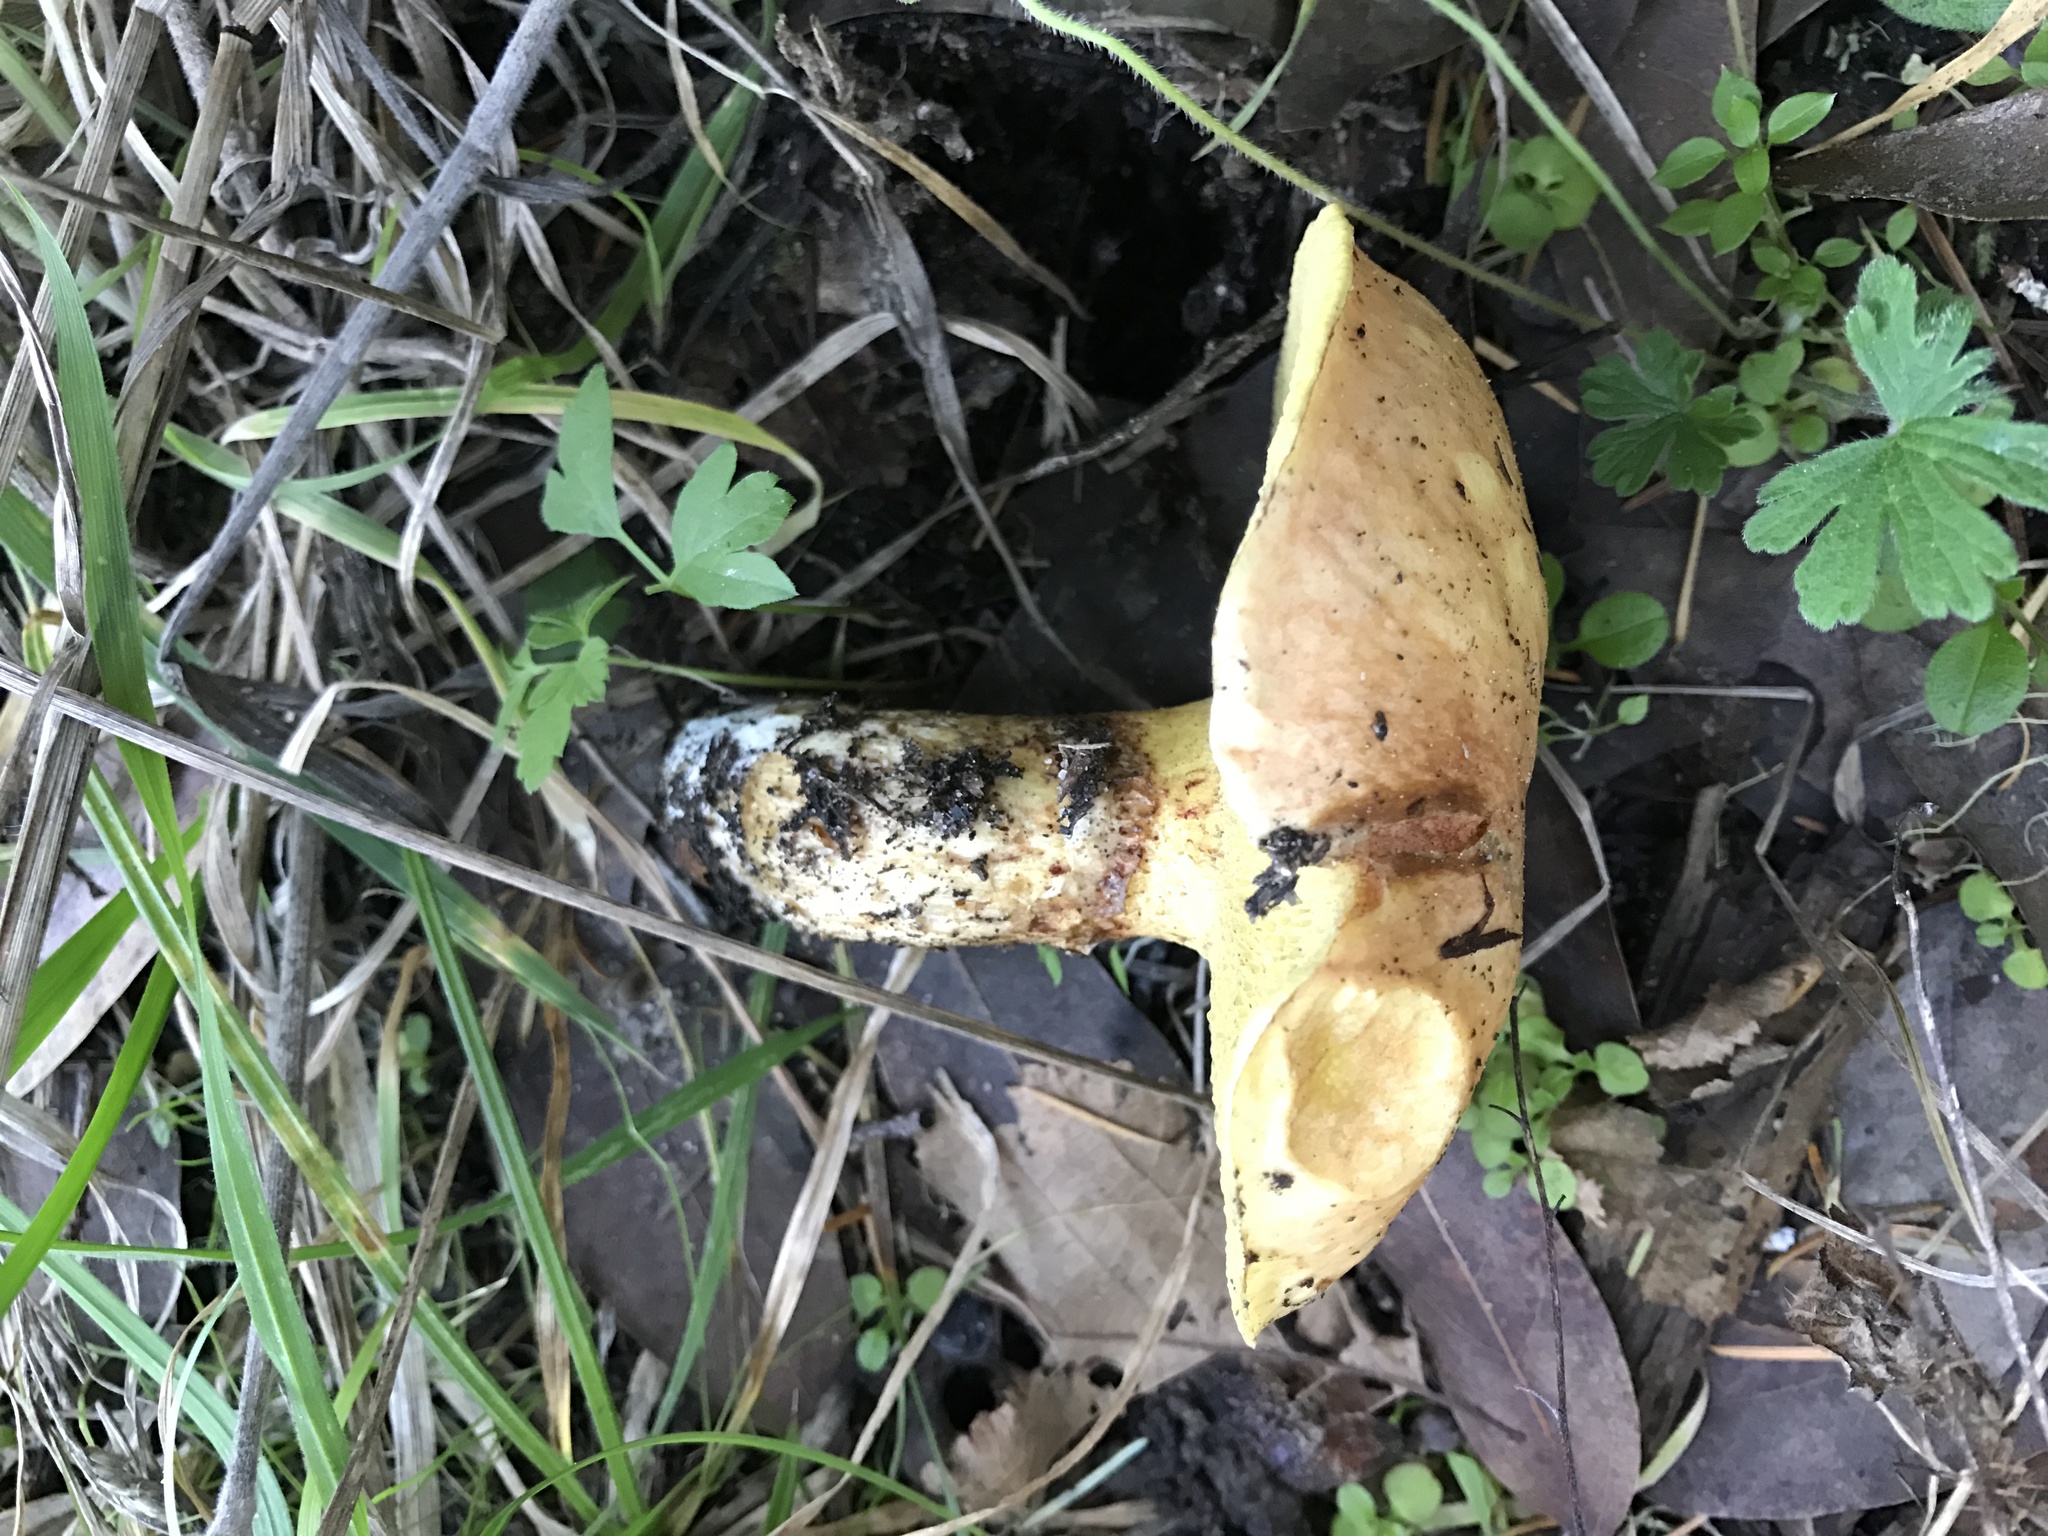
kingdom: Fungi
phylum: Basidiomycota
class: Agaricomycetes
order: Boletales
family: Suillaceae
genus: Suillus
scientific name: Suillus caerulescens
